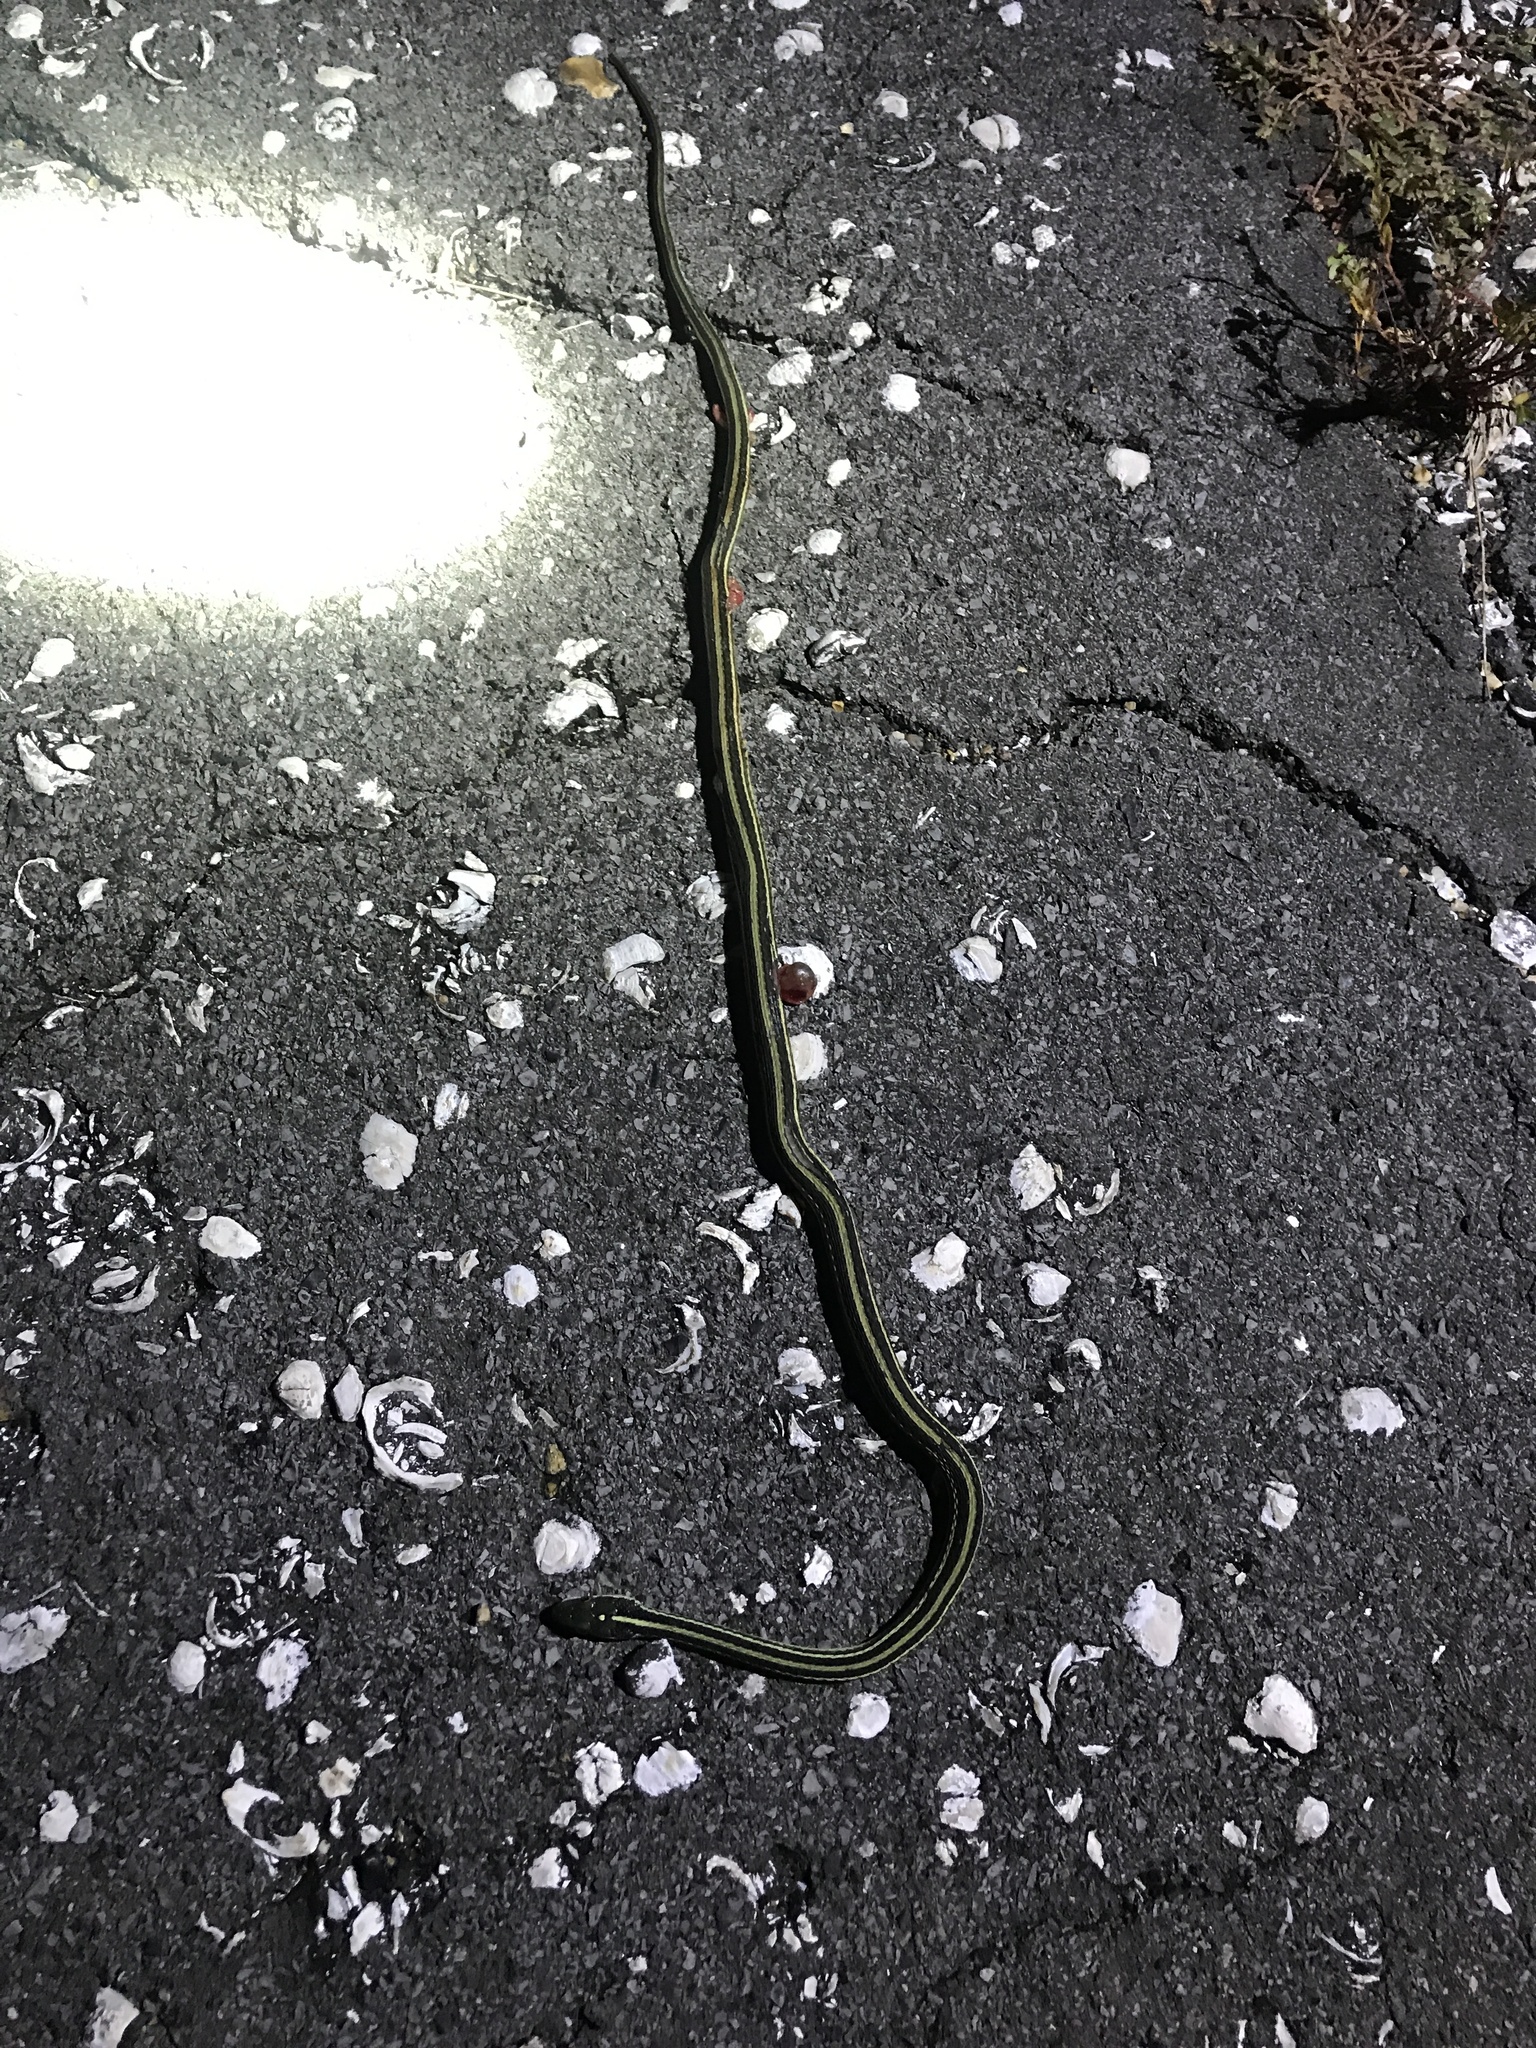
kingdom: Animalia
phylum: Chordata
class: Squamata
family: Colubridae
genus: Thamnophis
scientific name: Thamnophis proximus
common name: Western ribbon snake
